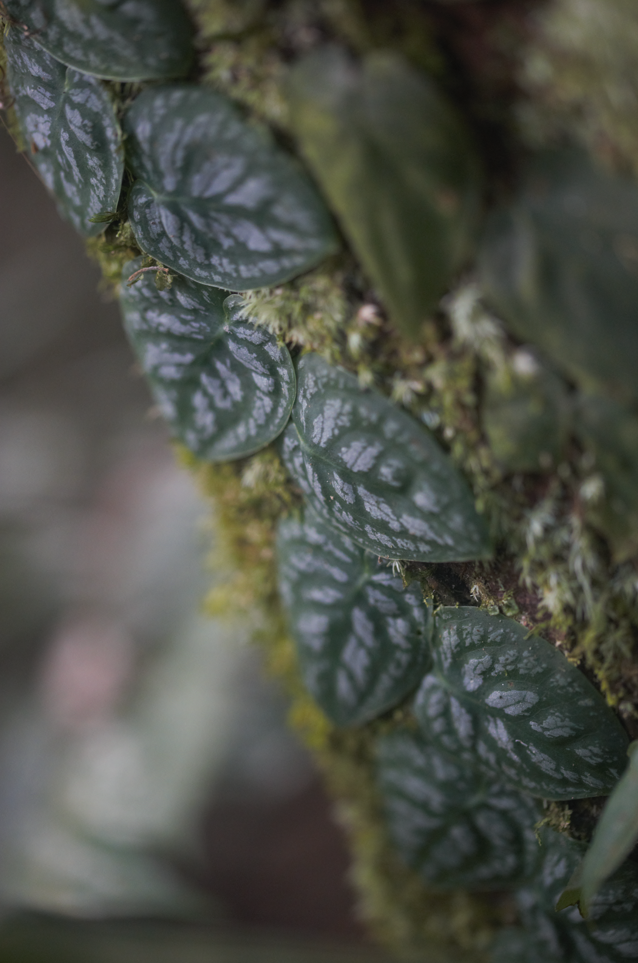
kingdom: Plantae
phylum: Tracheophyta
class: Liliopsida
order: Alismatales
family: Araceae
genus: Monstera
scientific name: Monstera dubia
